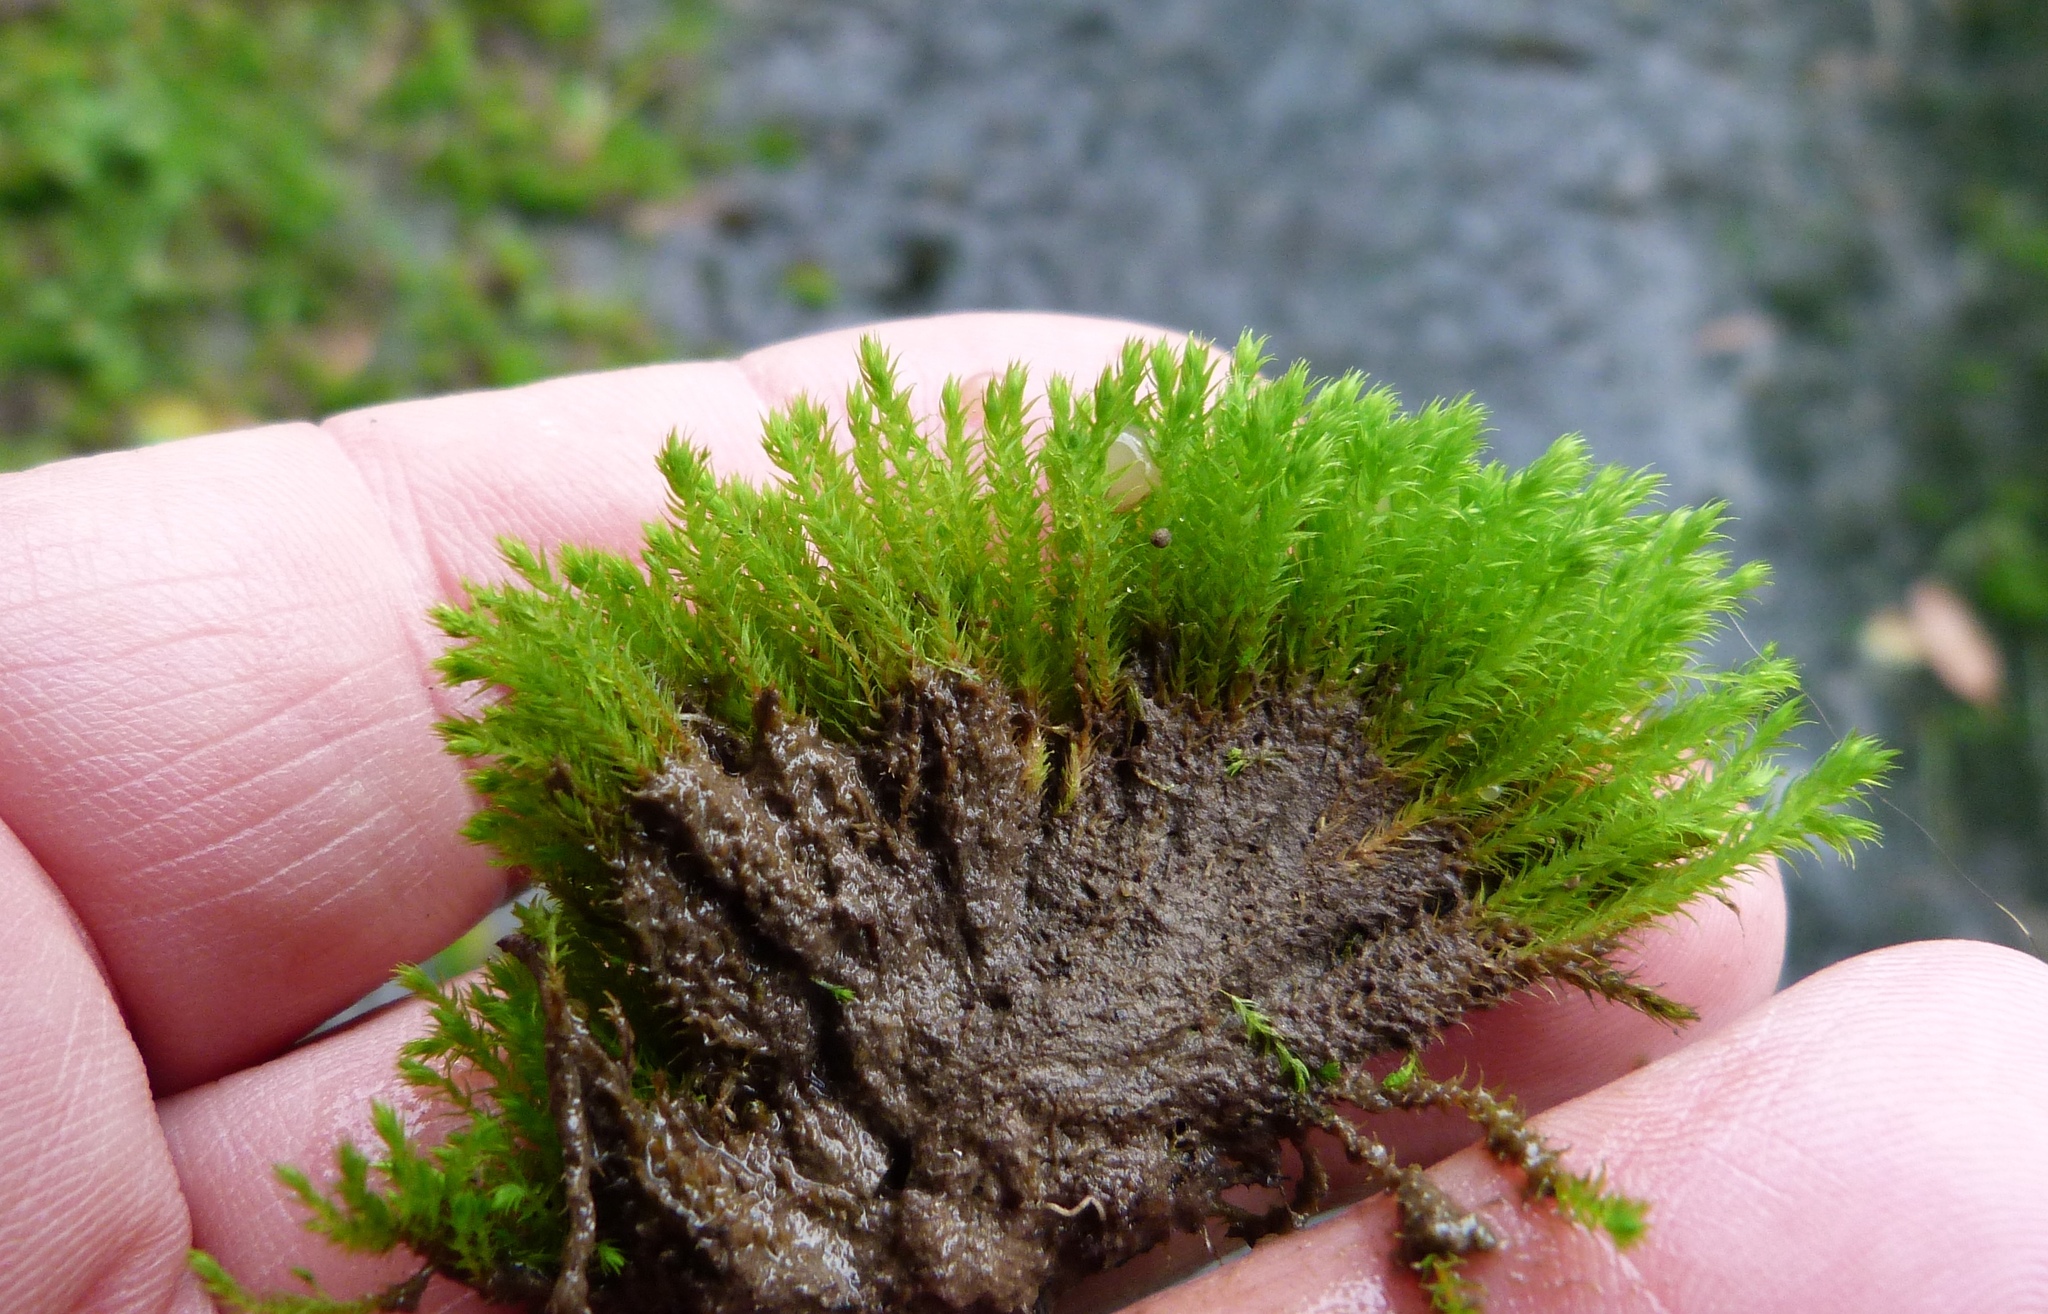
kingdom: Plantae
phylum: Bryophyta
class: Bryopsida
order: Bartramiales
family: Bartramiaceae
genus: Philonotis
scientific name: Philonotis tenuis
